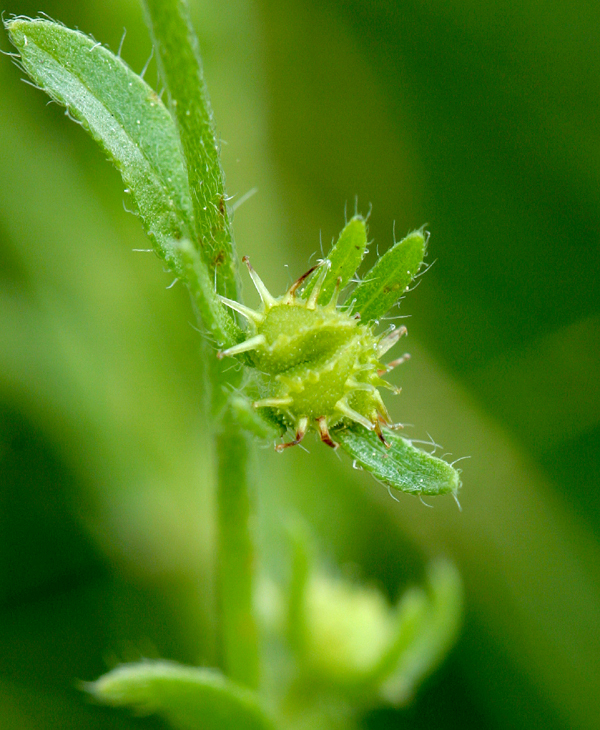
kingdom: Plantae
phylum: Tracheophyta
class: Magnoliopsida
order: Boraginales
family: Boraginaceae
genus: Lappula
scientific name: Lappula redowskii
